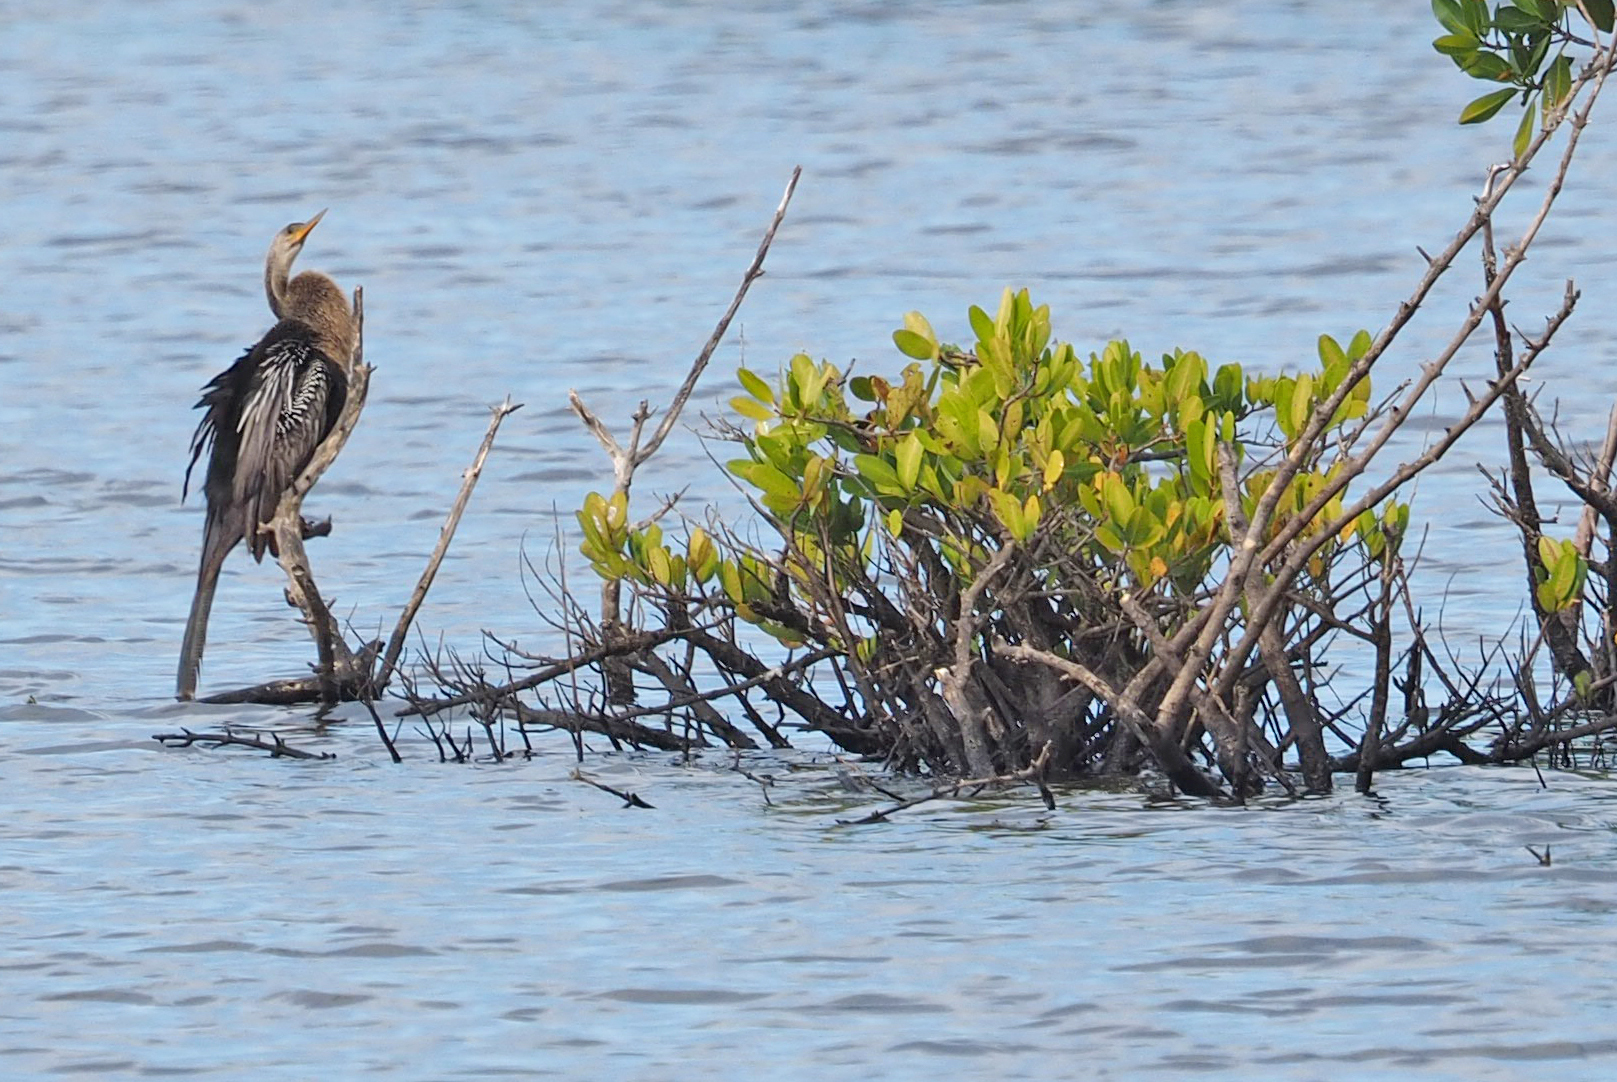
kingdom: Animalia
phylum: Chordata
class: Aves
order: Suliformes
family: Anhingidae
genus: Anhinga
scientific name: Anhinga anhinga
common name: Anhinga
